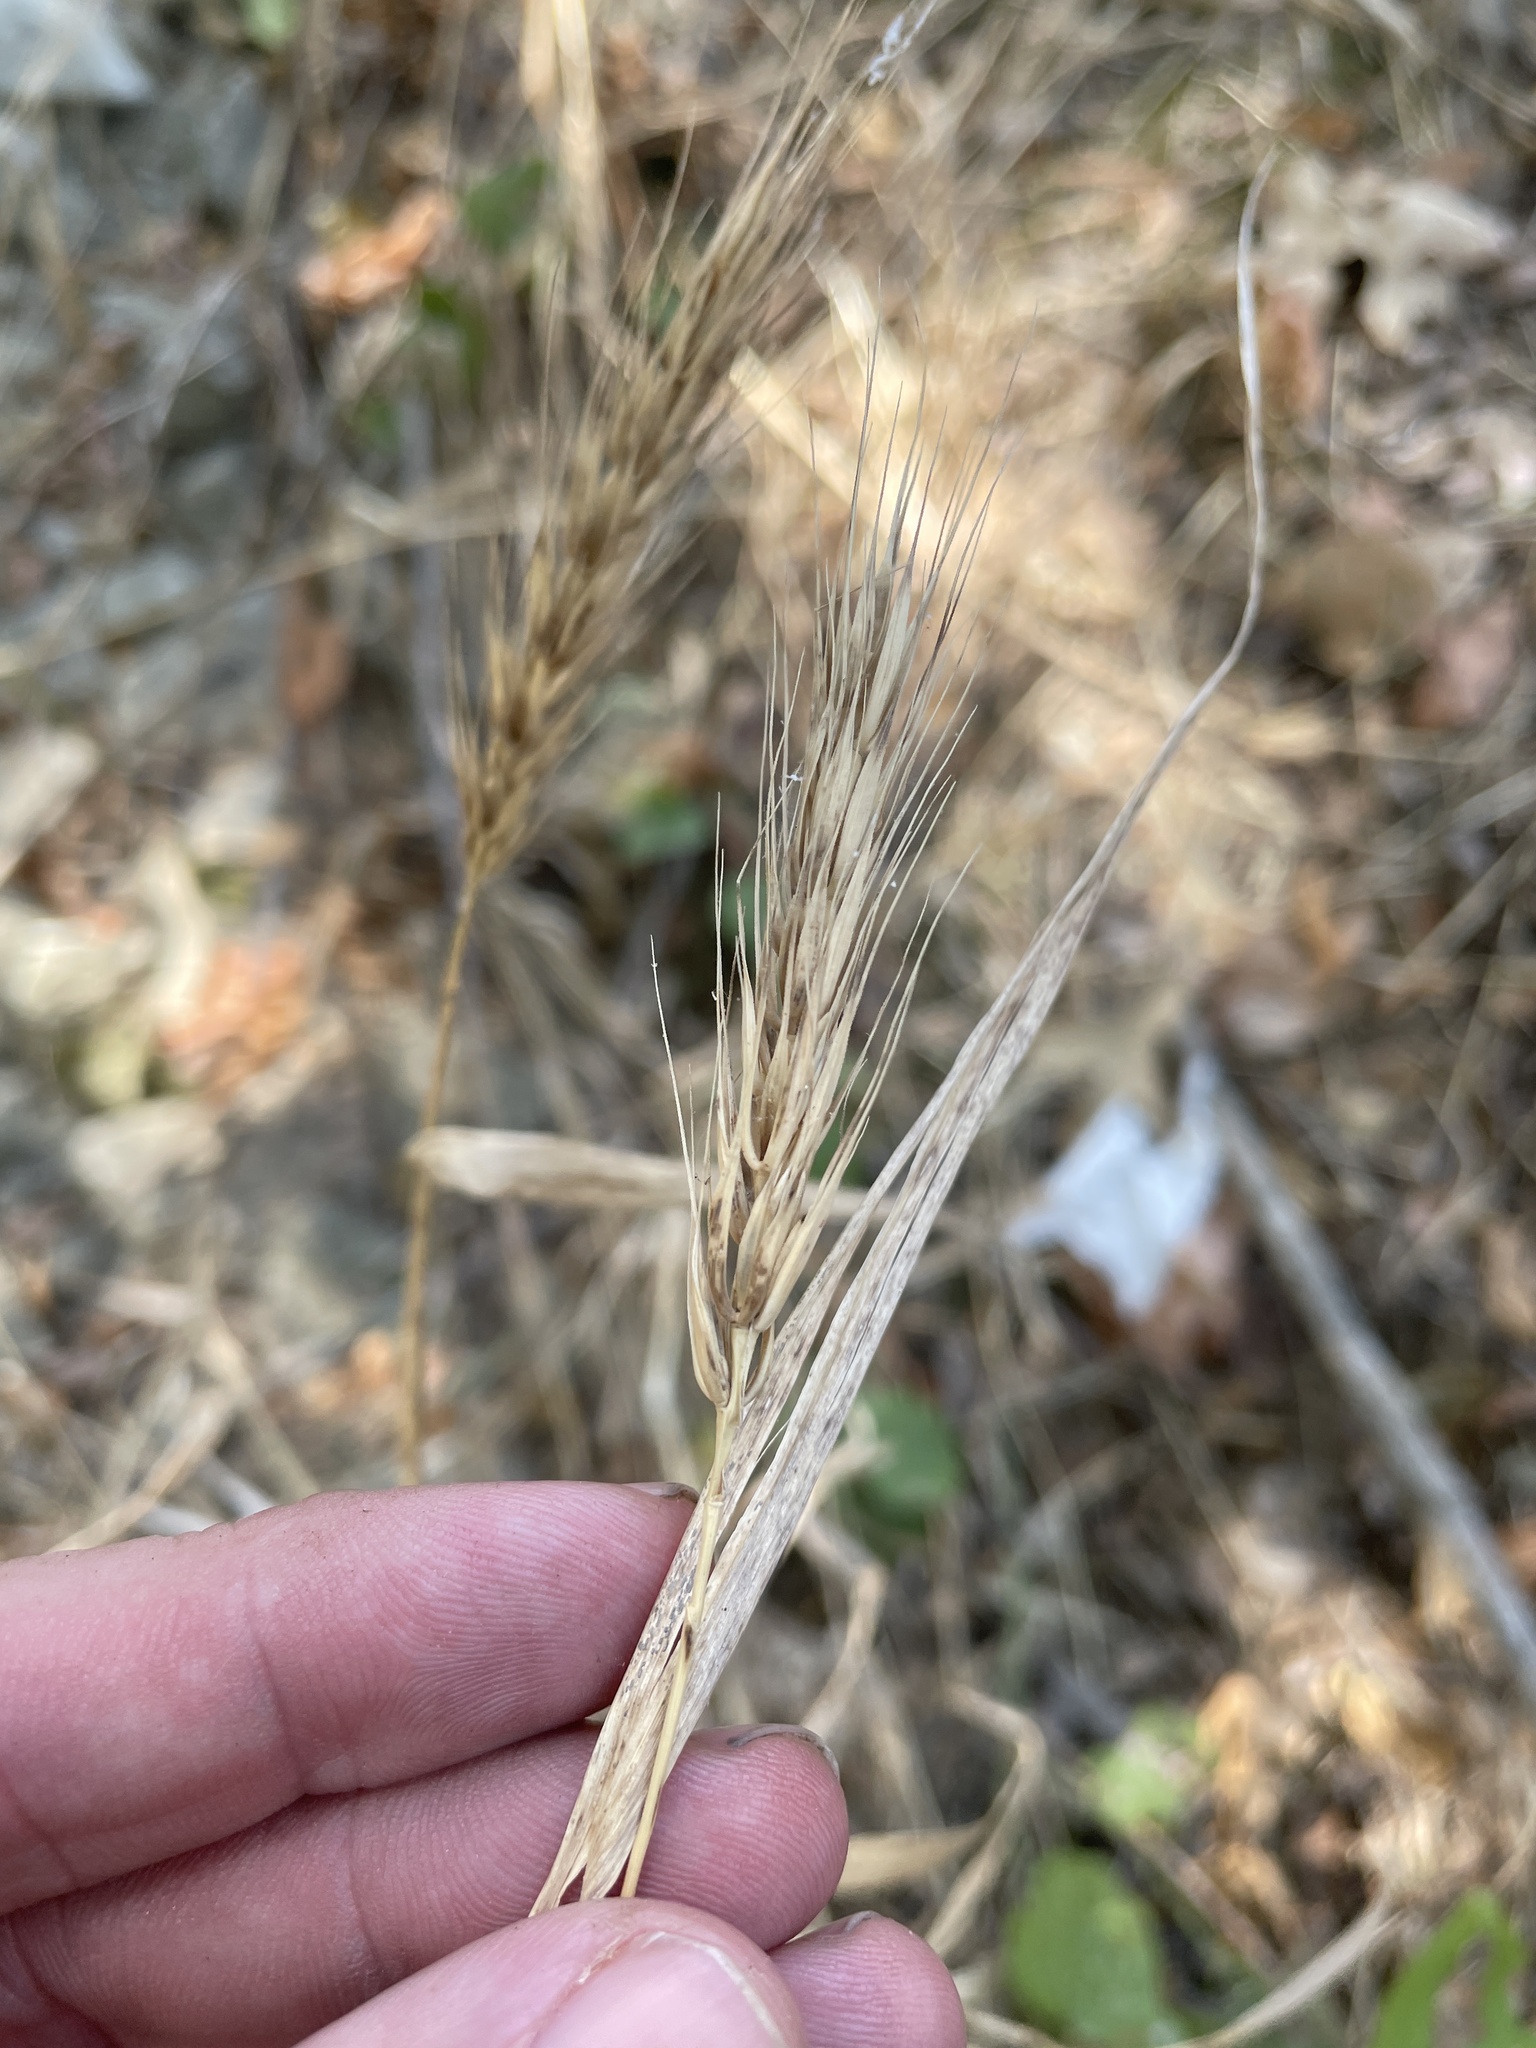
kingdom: Plantae
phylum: Tracheophyta
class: Liliopsida
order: Poales
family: Poaceae
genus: Elymus
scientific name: Elymus virginicus
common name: Common eastern wildrye
